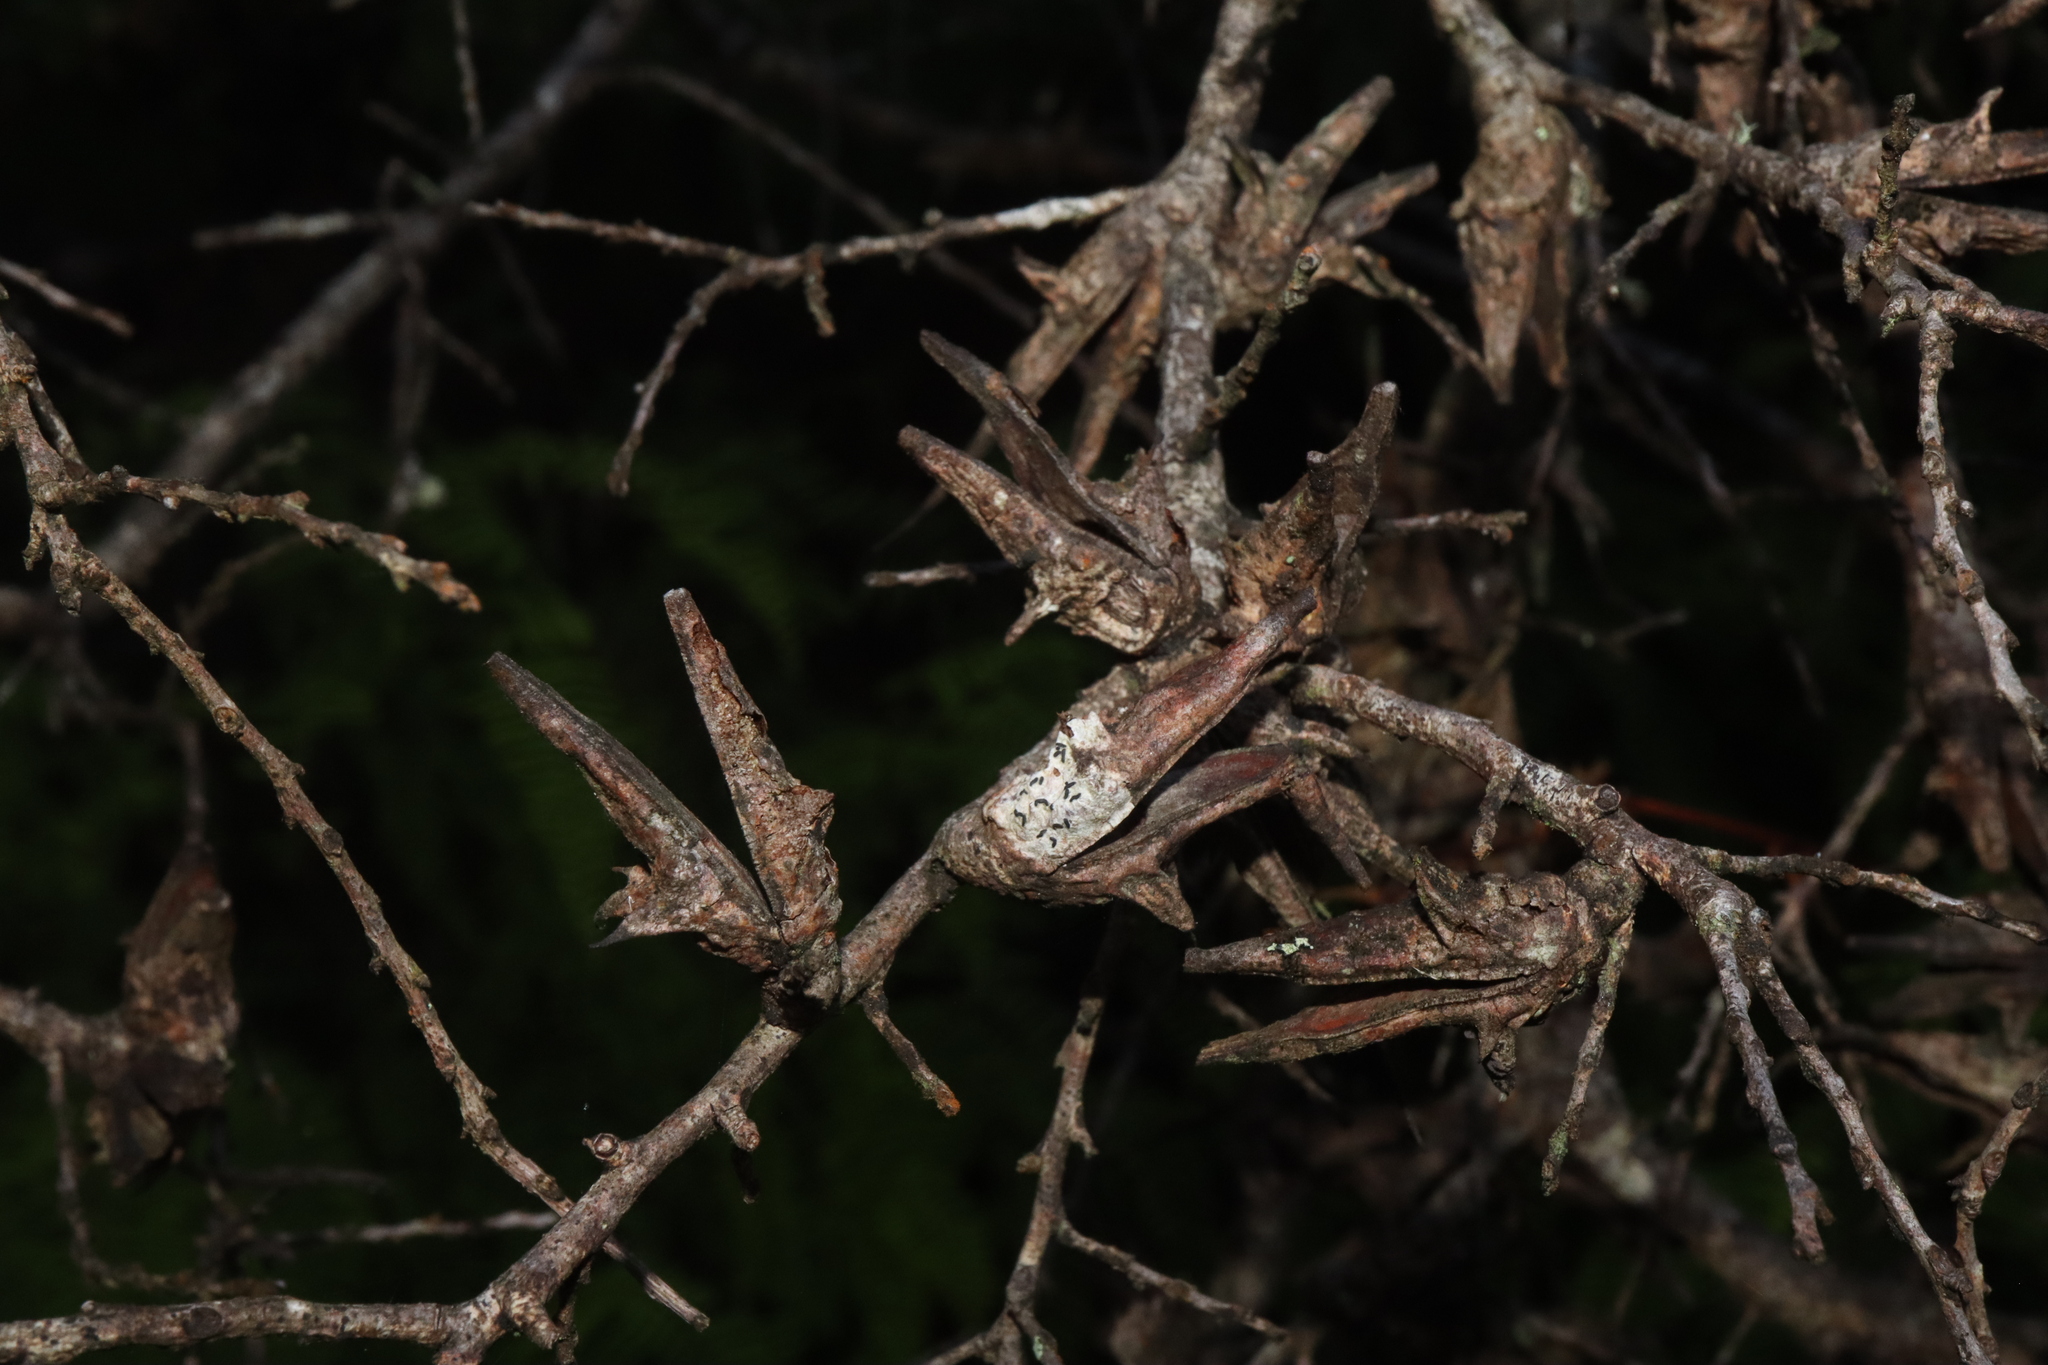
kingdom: Plantae
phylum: Tracheophyta
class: Magnoliopsida
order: Proteales
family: Proteaceae
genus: Hakea
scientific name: Hakea teretifolia
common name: Dagger hakea
